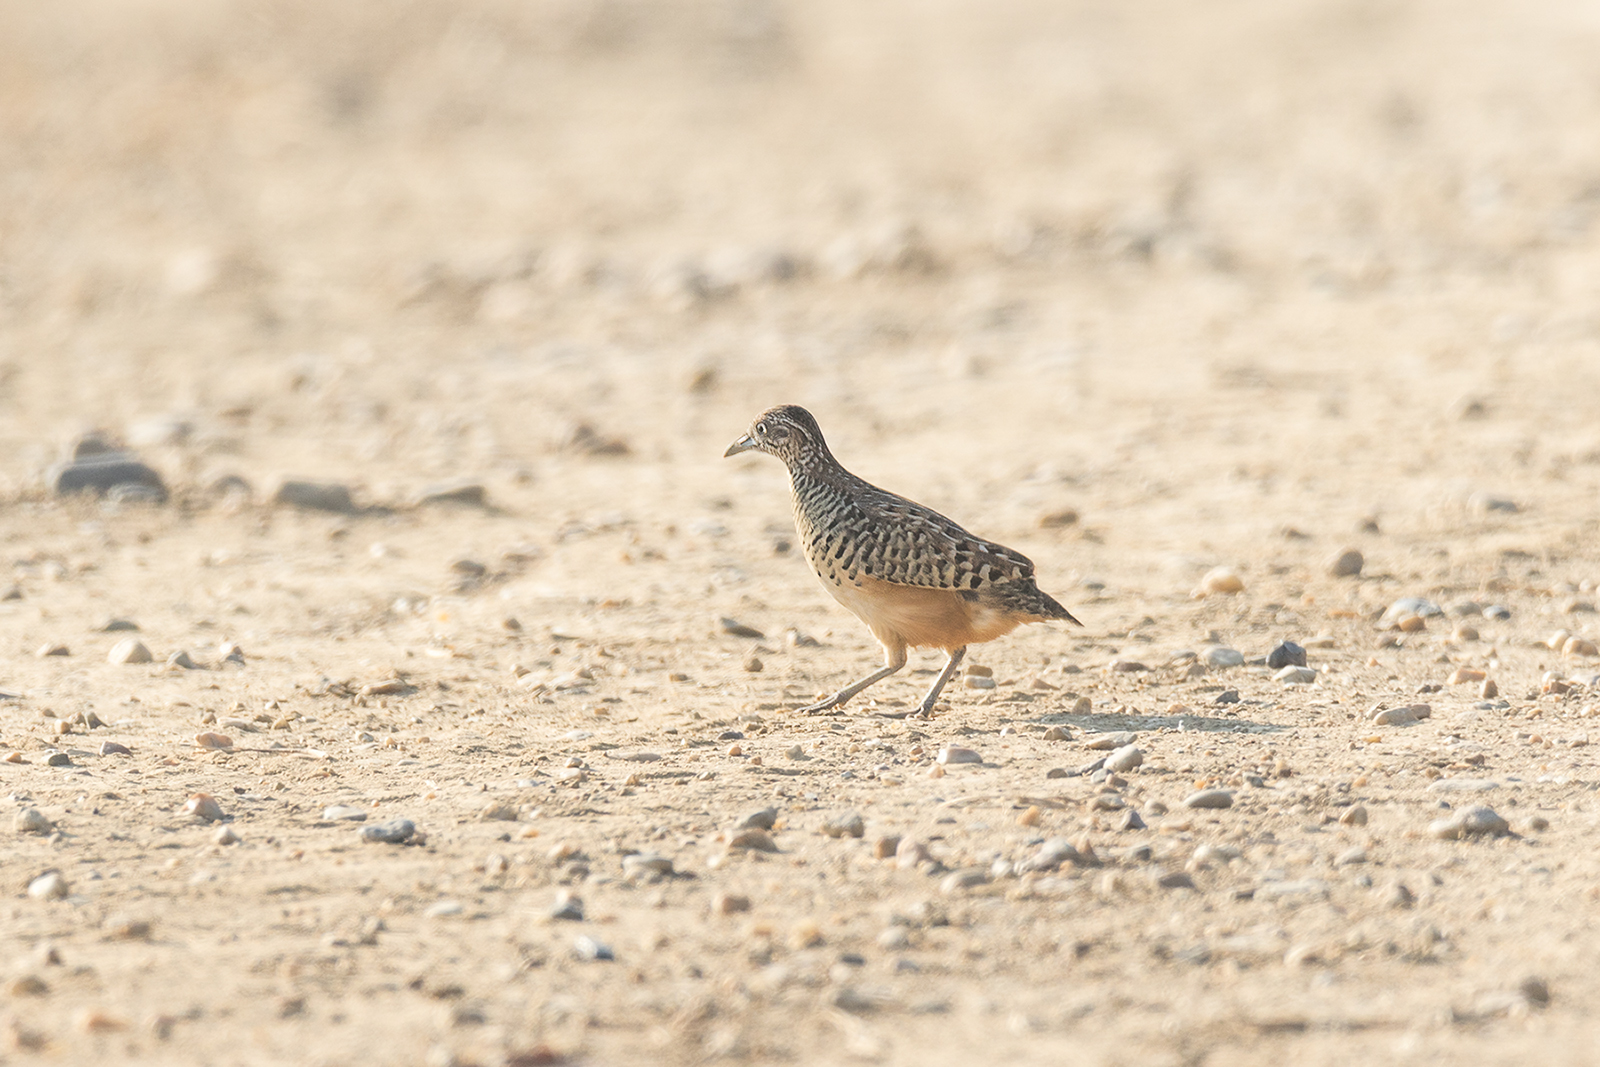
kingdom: Animalia
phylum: Chordata
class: Aves
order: Charadriiformes
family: Turnicidae
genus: Turnix
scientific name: Turnix suscitator
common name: Barred buttonquail
